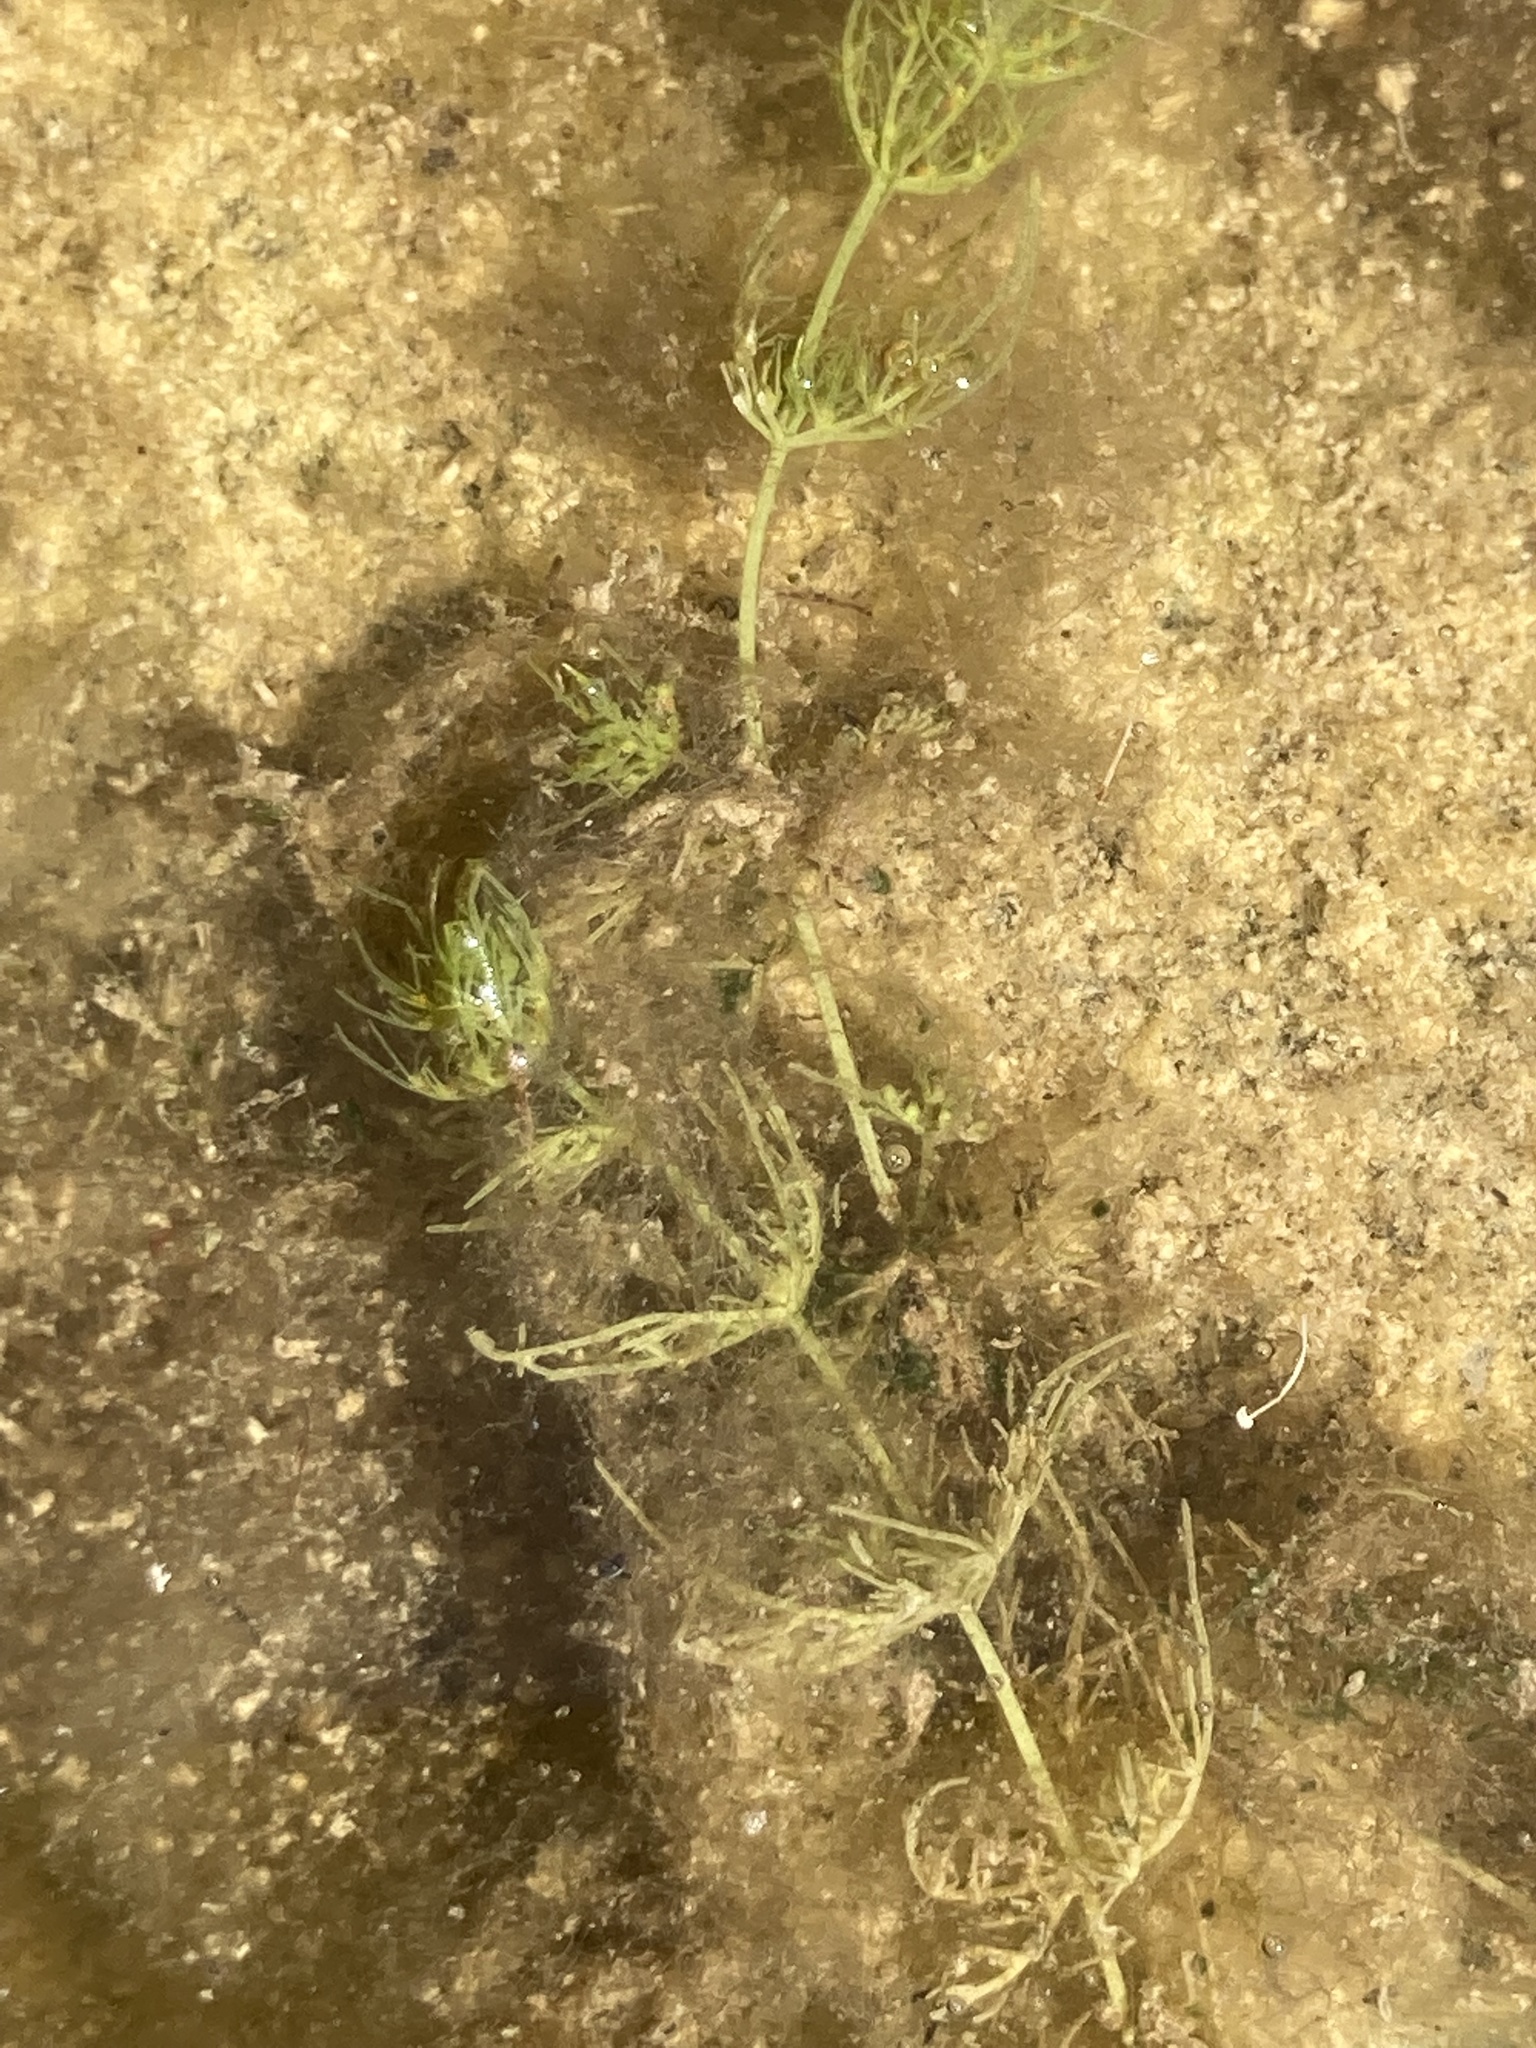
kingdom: Plantae
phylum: Charophyta
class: Charophyceae
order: Charales
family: Characeae
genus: Chara
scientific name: Chara vulgaris
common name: Common stonewort
